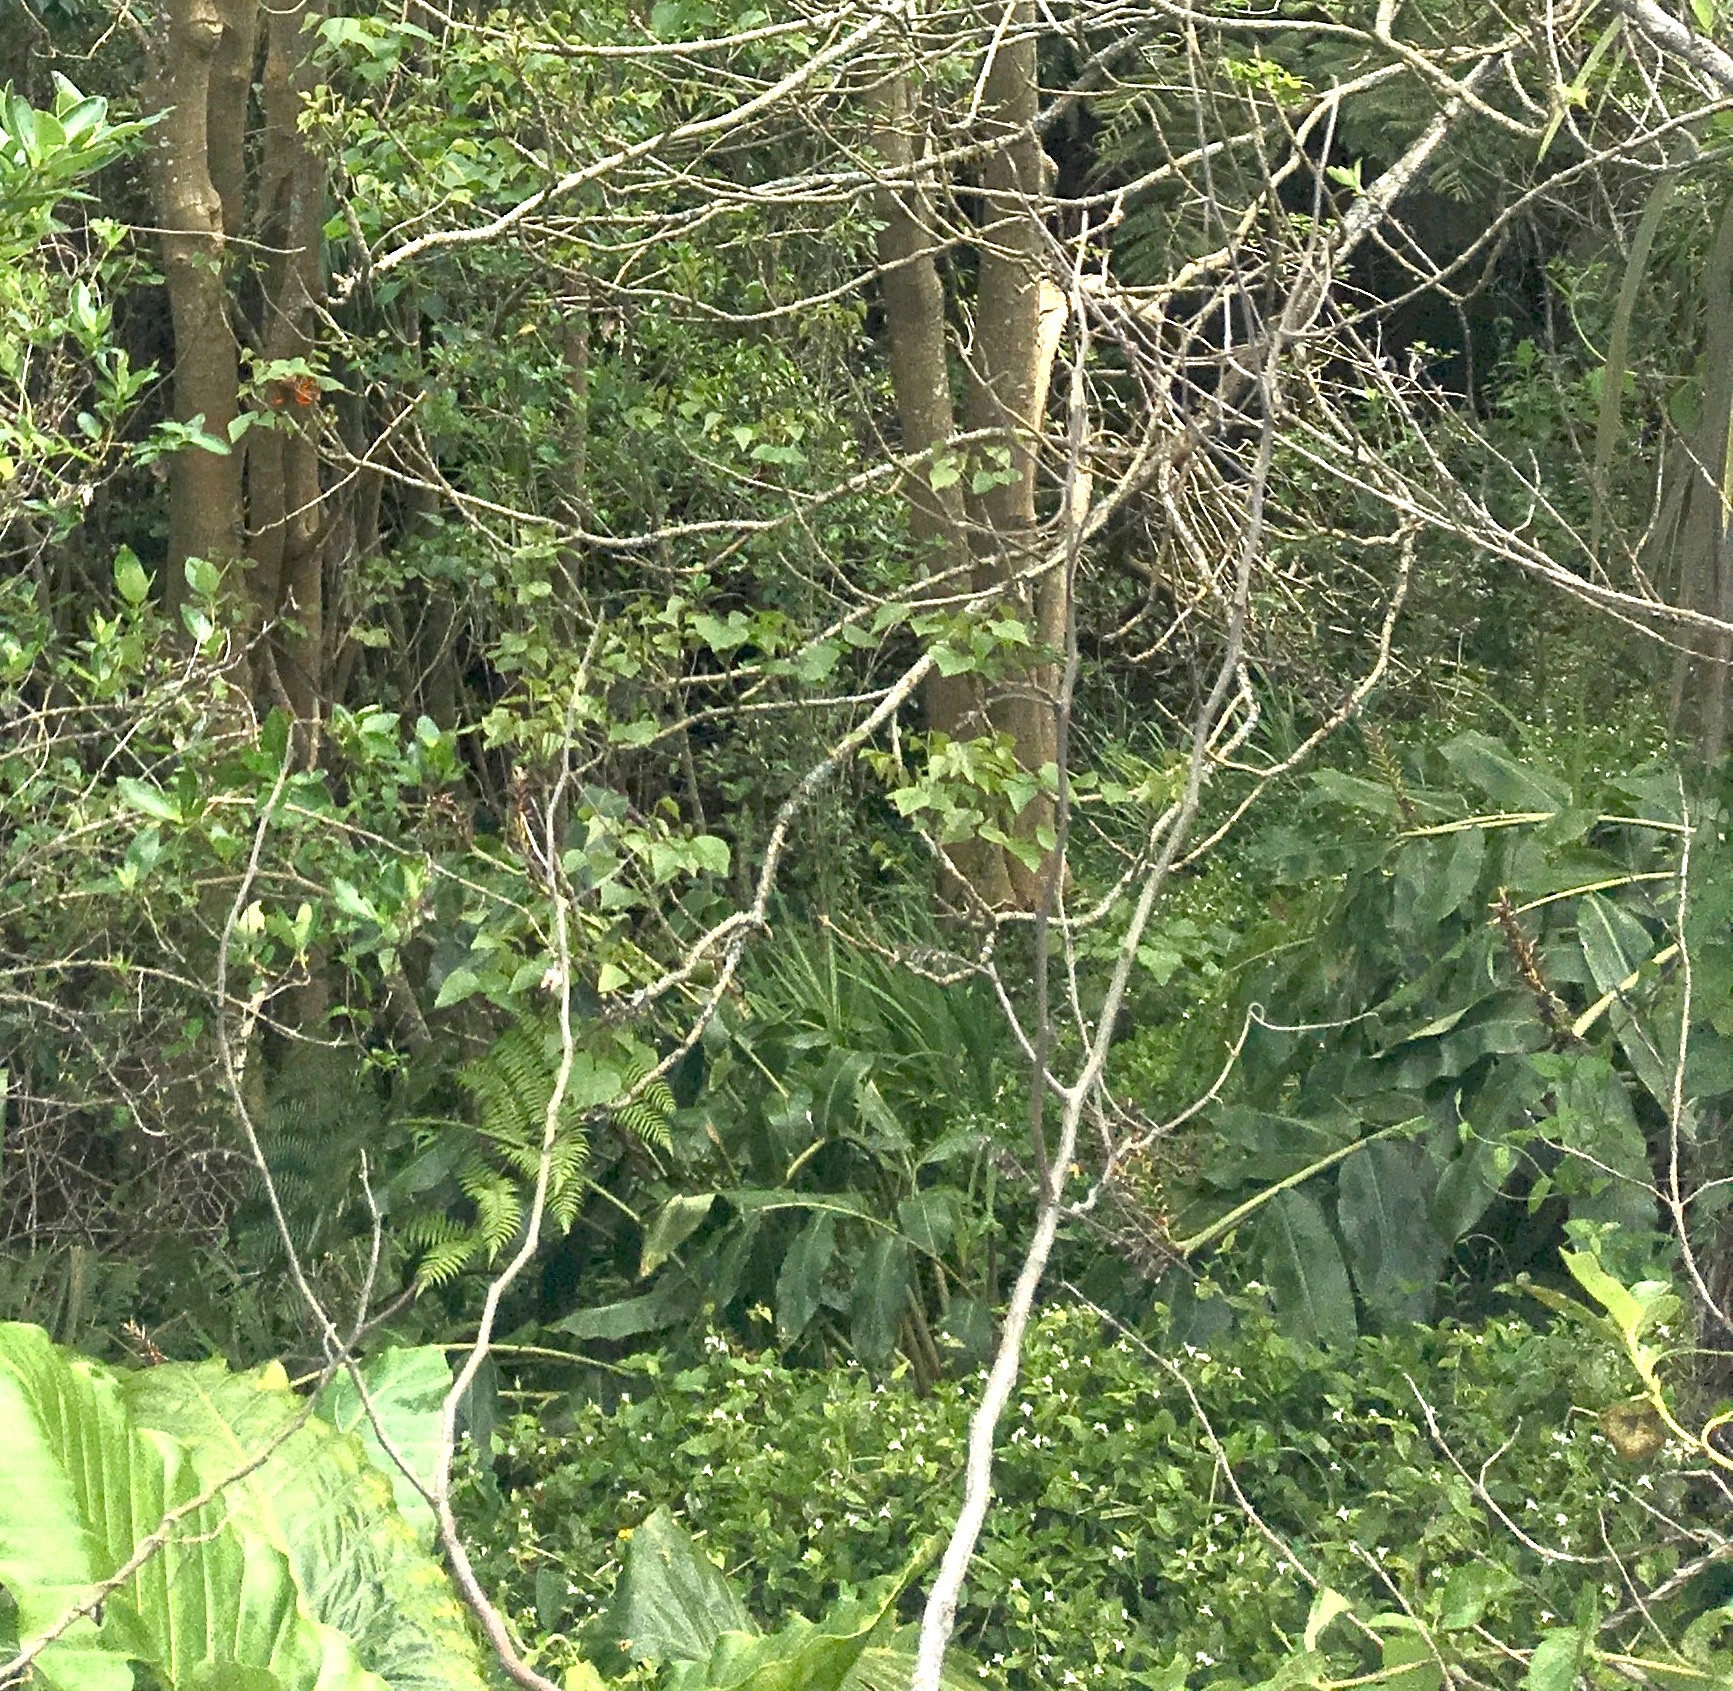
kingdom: Plantae
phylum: Tracheophyta
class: Liliopsida
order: Zingiberales
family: Zingiberaceae
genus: Hedychium
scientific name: Hedychium gardnerianum
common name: Himalayan ginger
